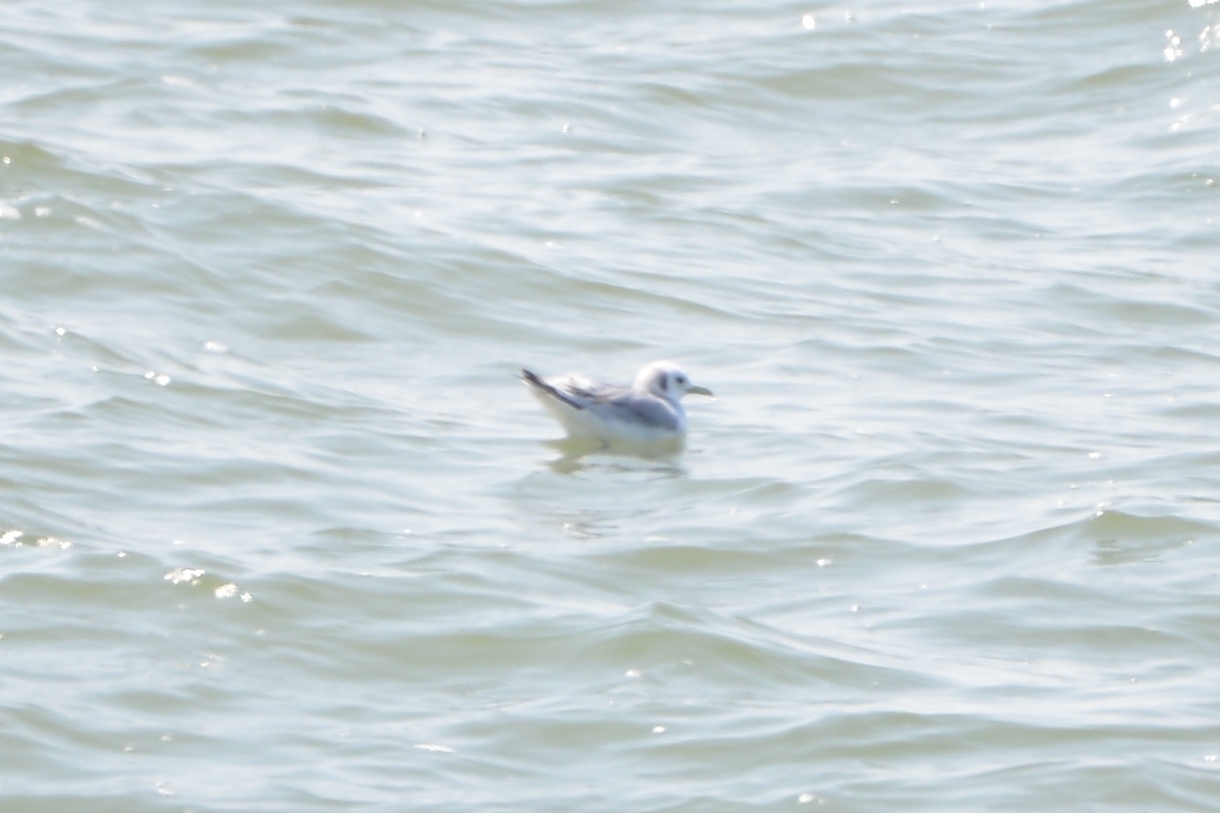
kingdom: Animalia
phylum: Chordata
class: Aves
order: Charadriiformes
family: Laridae
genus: Rissa
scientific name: Rissa tridactyla
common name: Black-legged kittiwake
